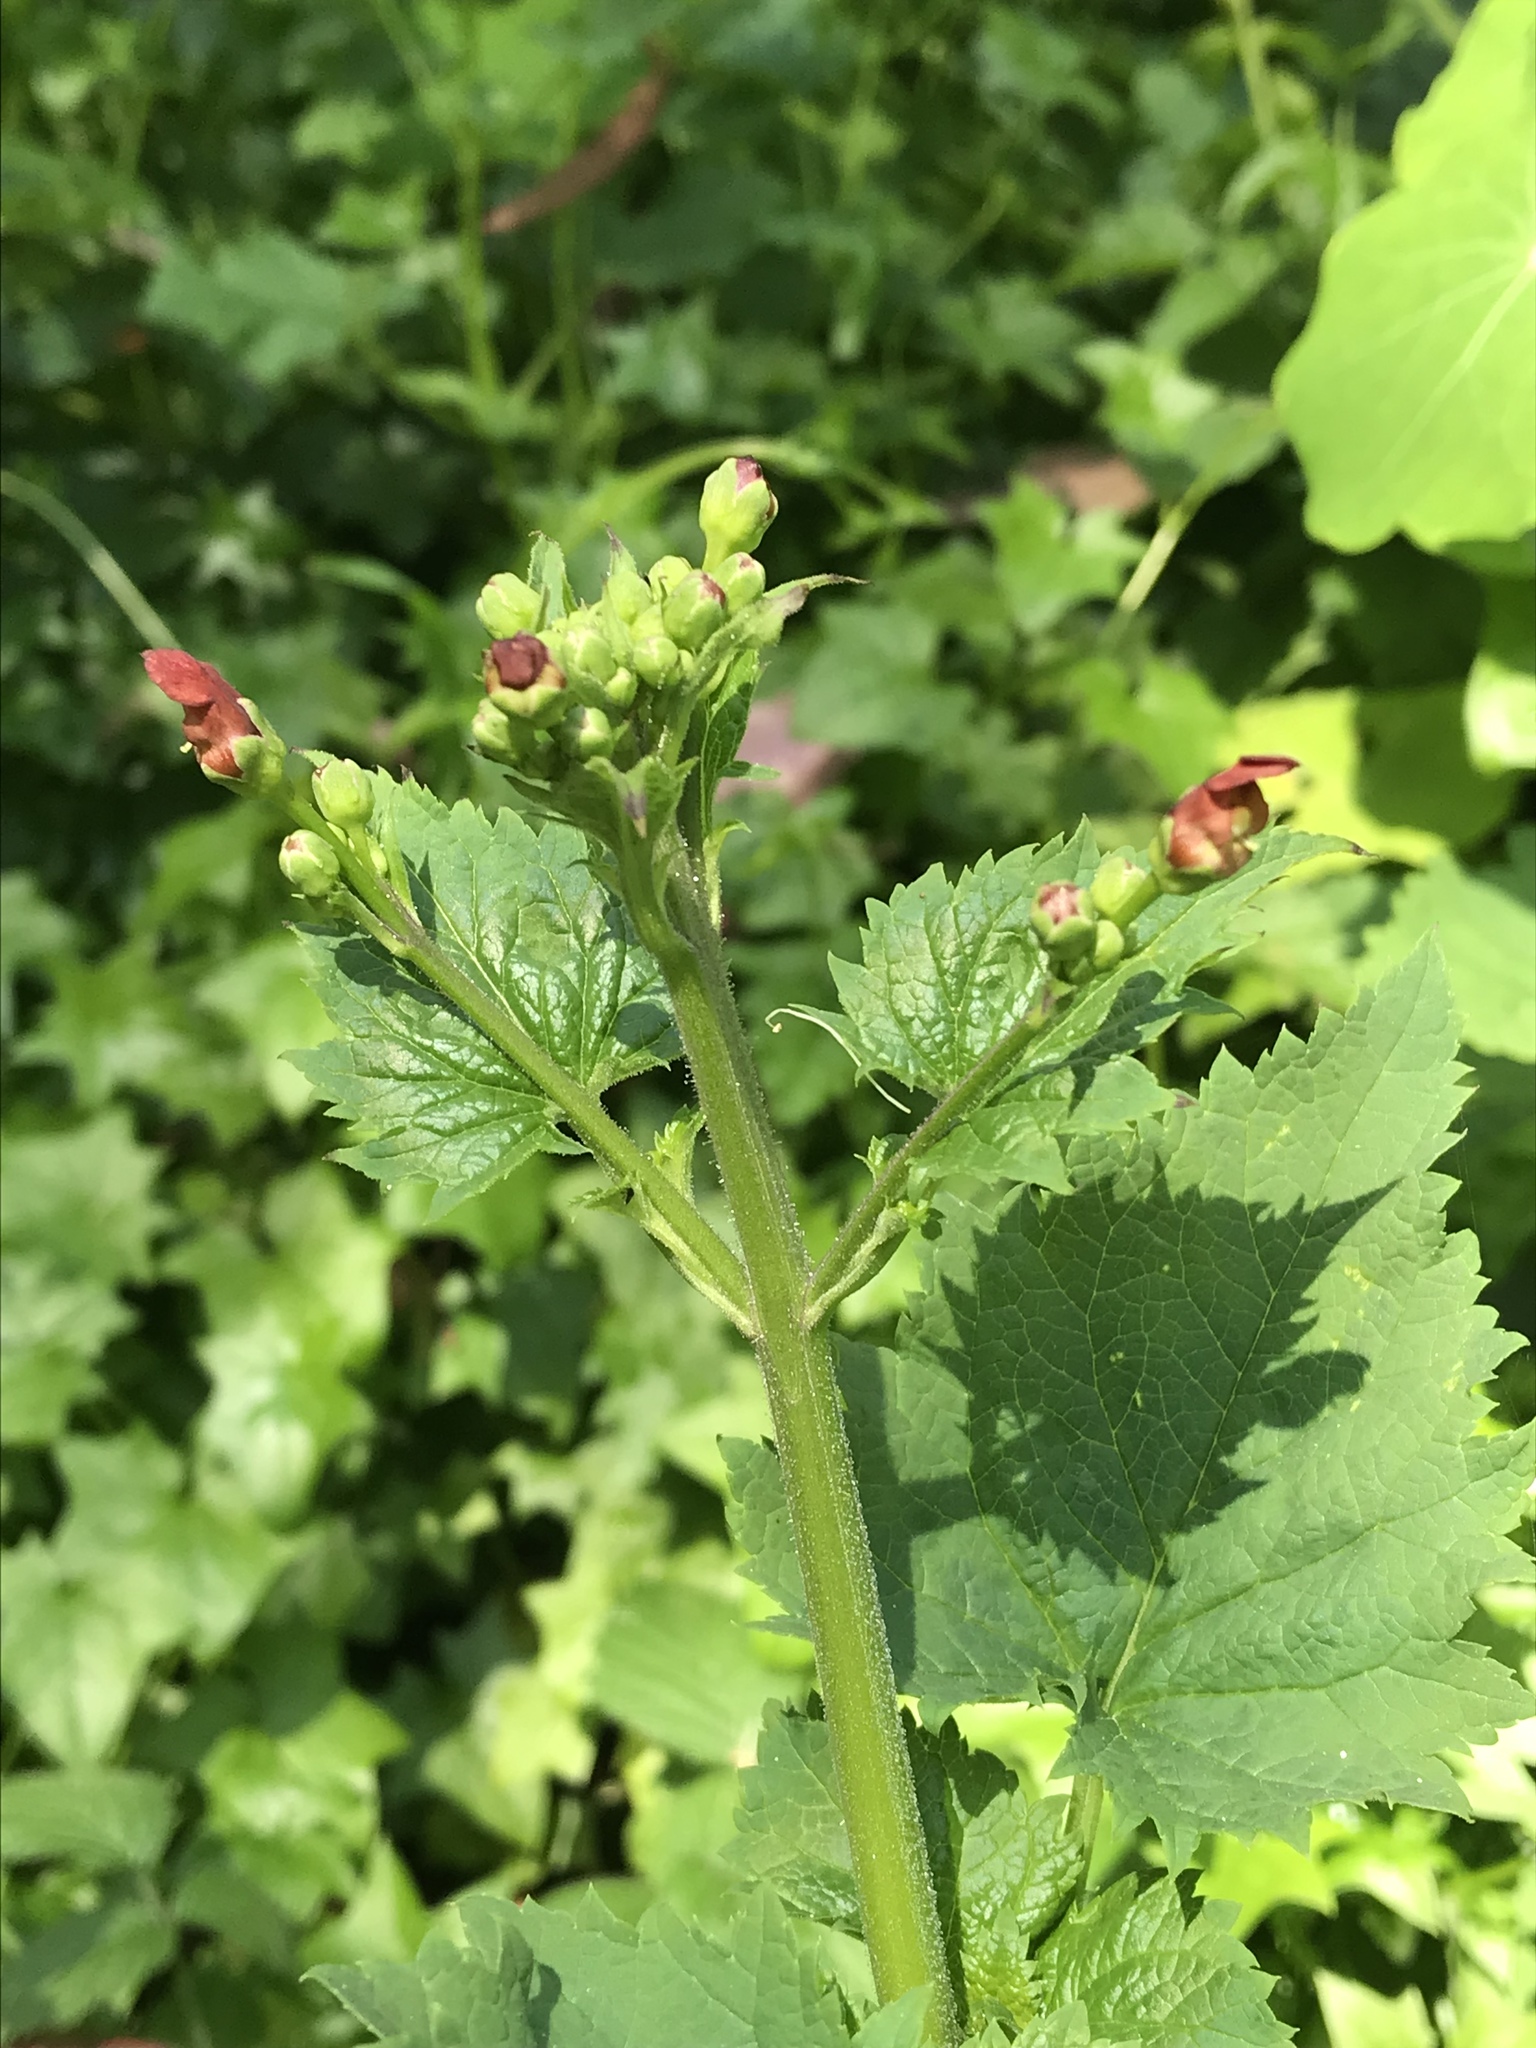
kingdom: Plantae
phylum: Tracheophyta
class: Magnoliopsida
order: Lamiales
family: Scrophulariaceae
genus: Scrophularia
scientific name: Scrophularia californica
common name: California figwort
